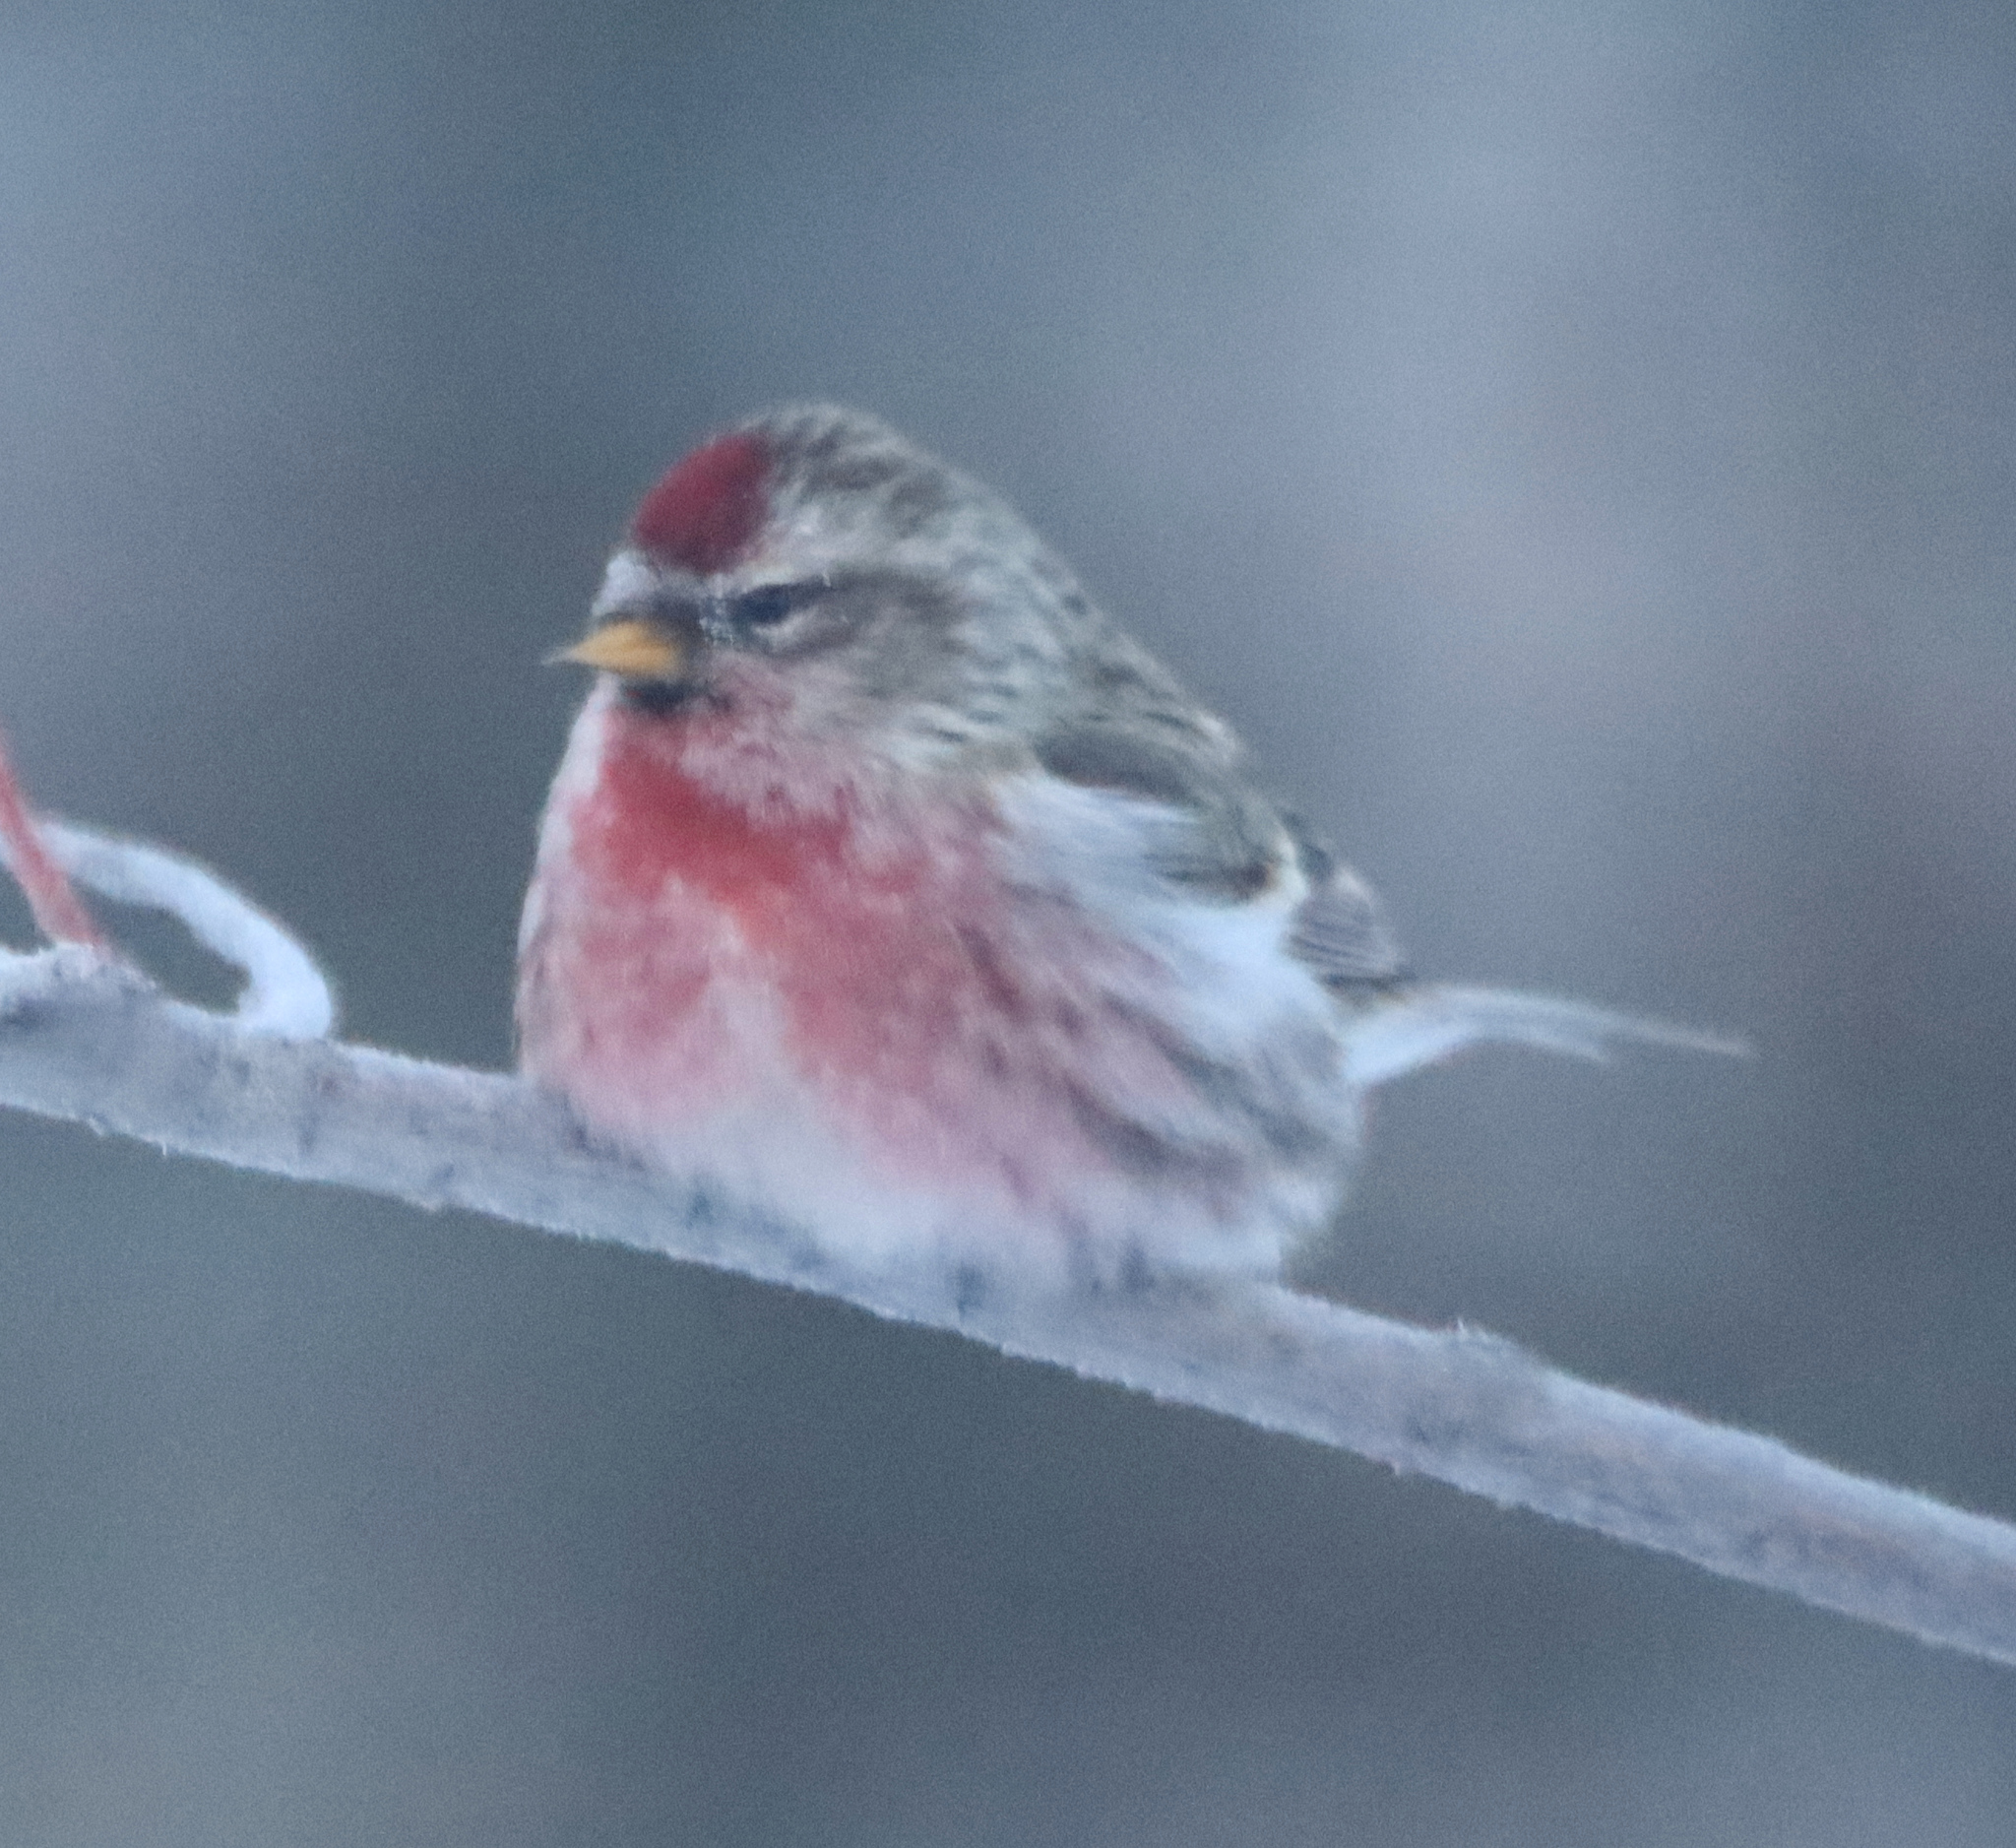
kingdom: Animalia
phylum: Chordata
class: Aves
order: Passeriformes
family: Fringillidae
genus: Acanthis
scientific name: Acanthis flammea
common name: Common redpoll
